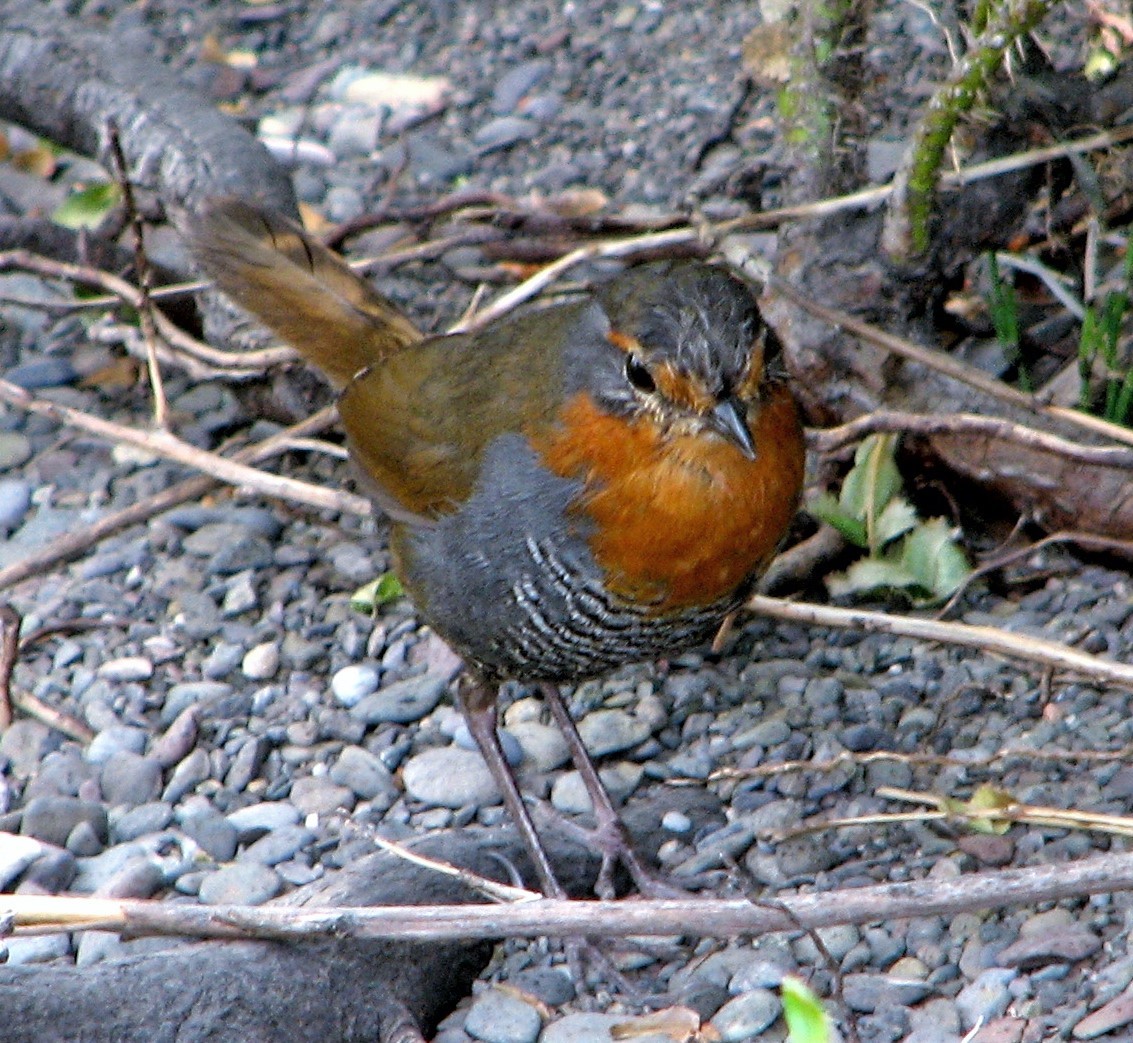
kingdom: Animalia
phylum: Chordata
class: Aves
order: Passeriformes
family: Rhinocryptidae
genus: Scelorchilus
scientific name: Scelorchilus rubecula
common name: Chucao tapaculo
